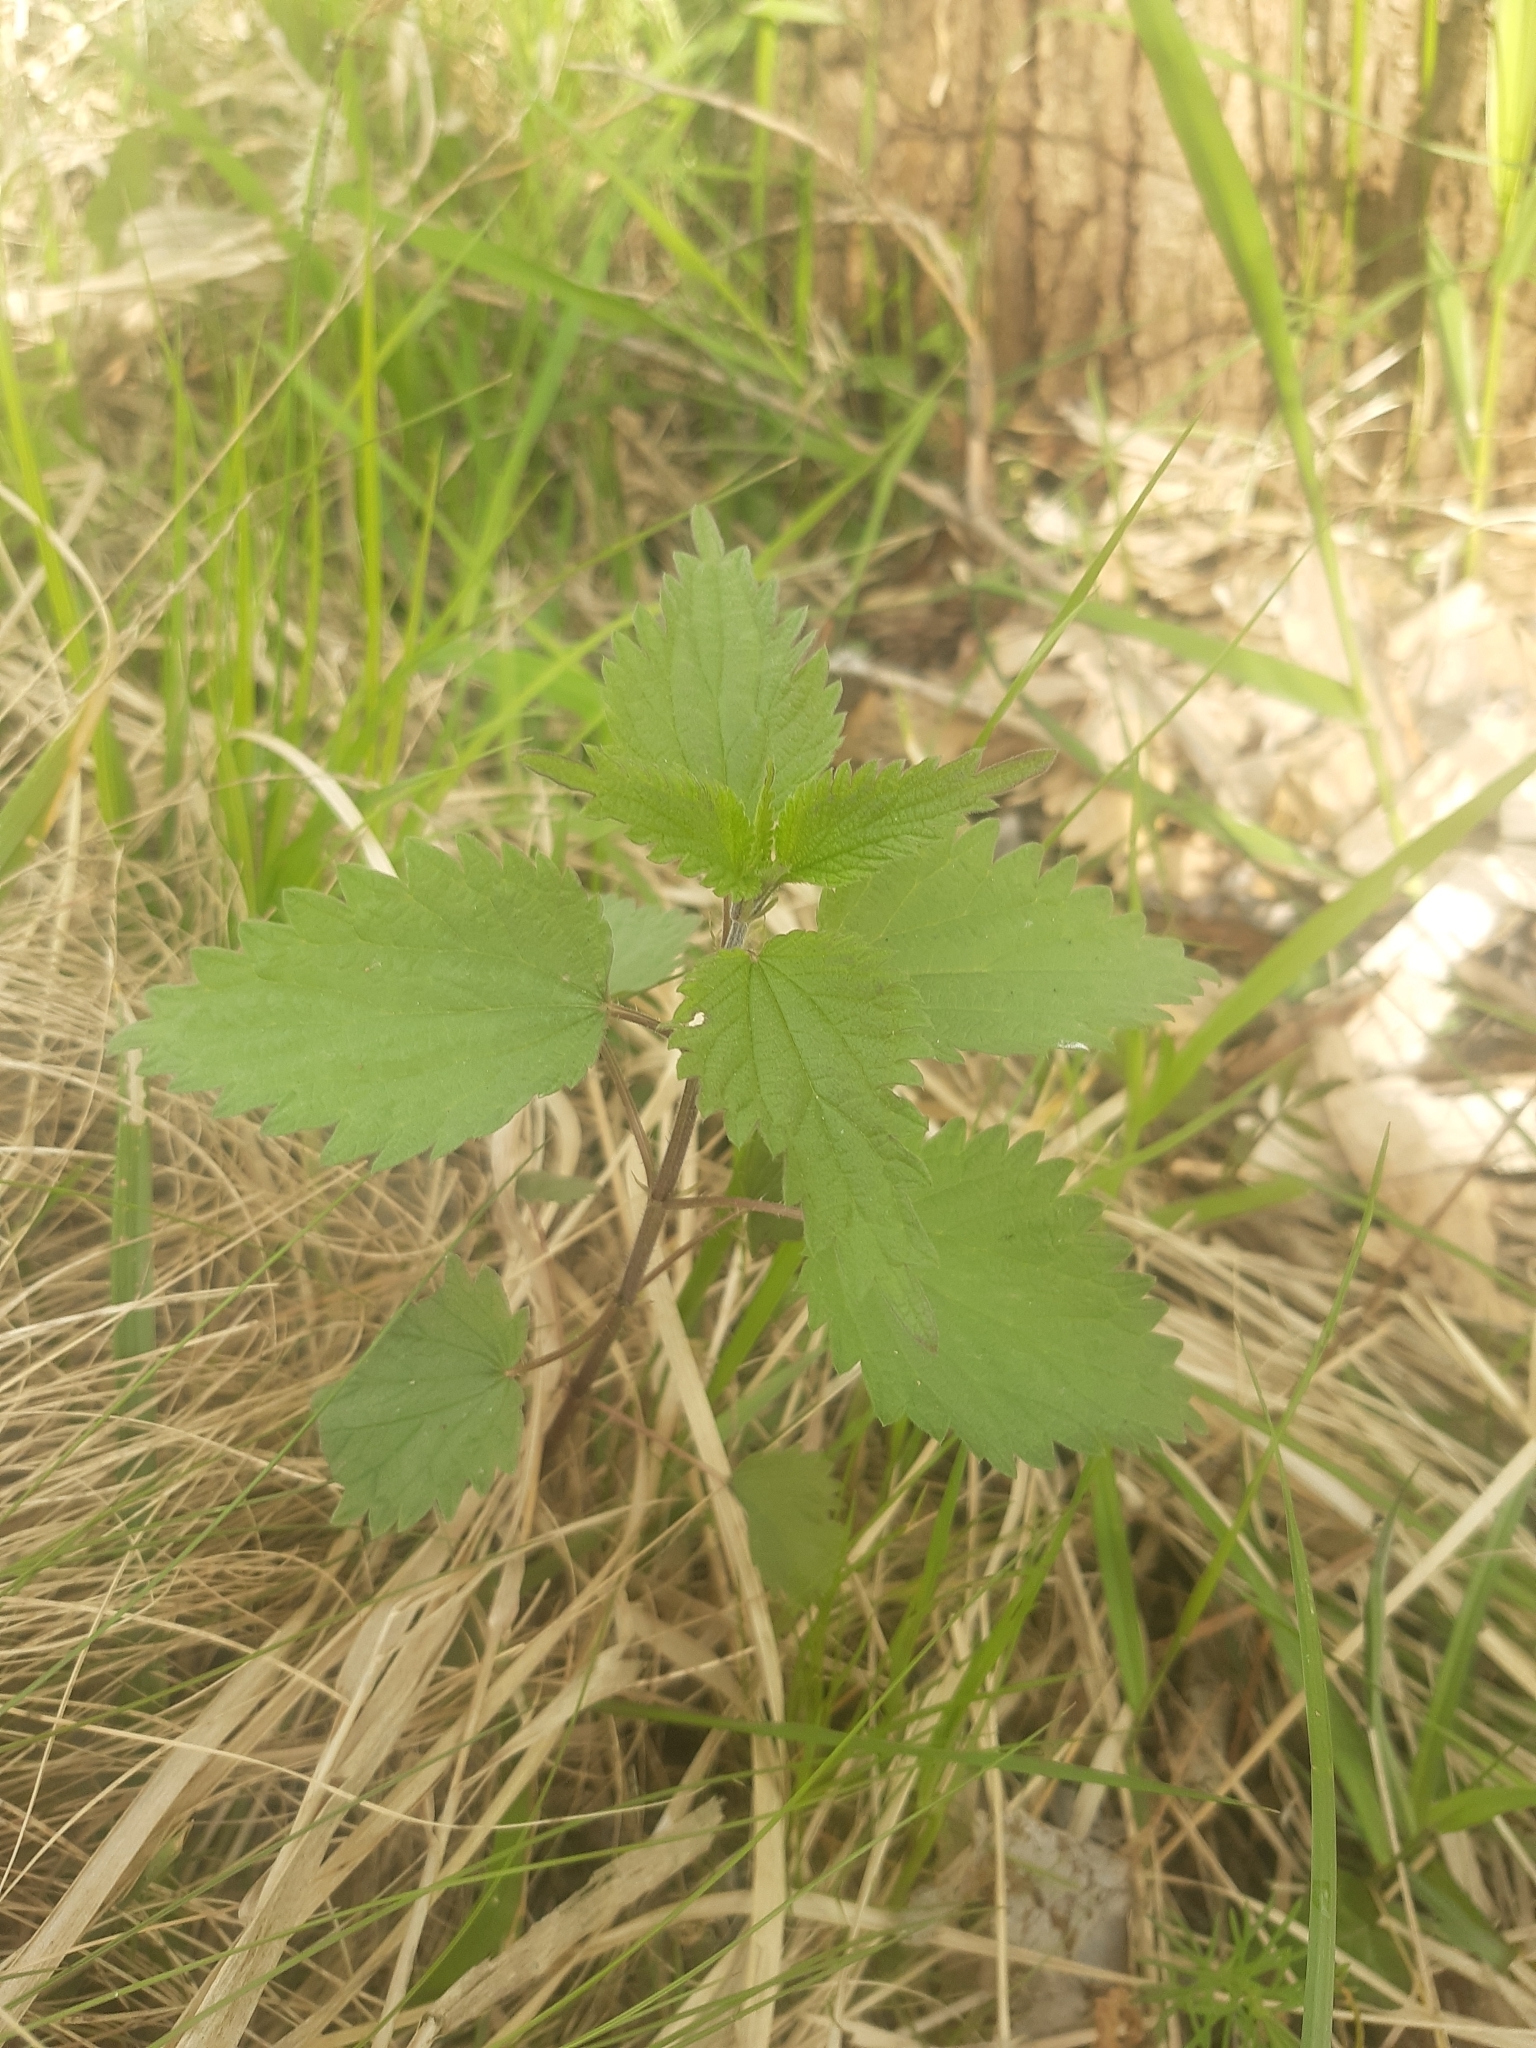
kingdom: Plantae
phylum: Tracheophyta
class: Magnoliopsida
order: Rosales
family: Urticaceae
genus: Urtica
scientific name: Urtica dioica
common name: Common nettle
